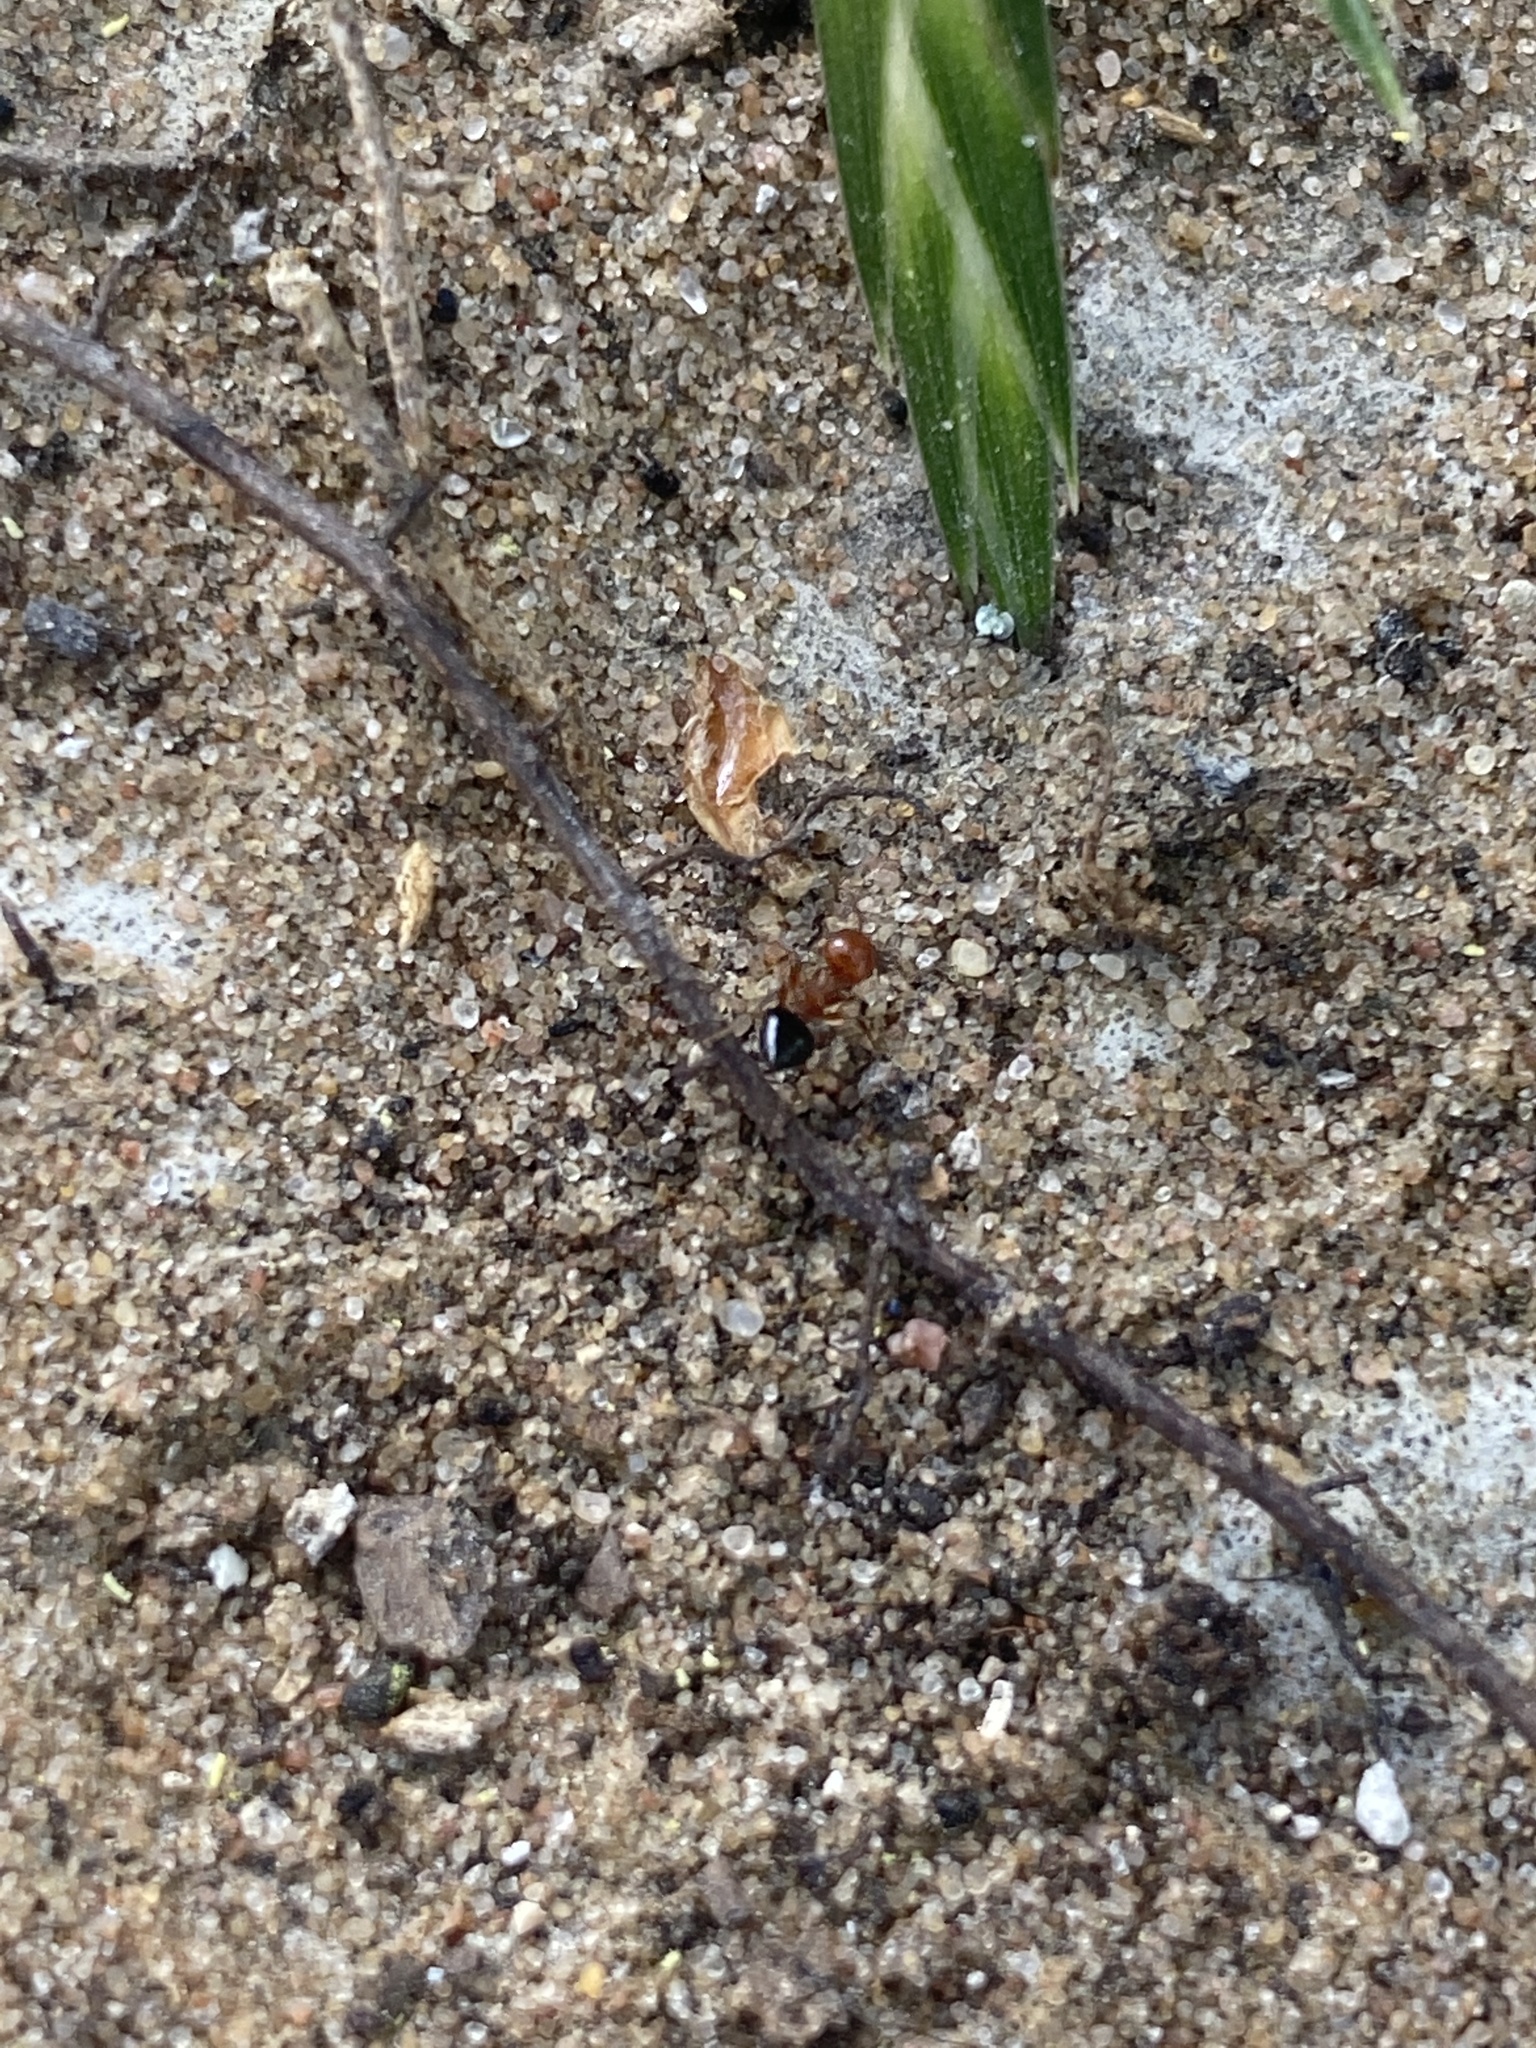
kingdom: Animalia
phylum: Arthropoda
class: Insecta
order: Hymenoptera
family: Formicidae
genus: Crematogaster
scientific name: Crematogaster laeviuscula
